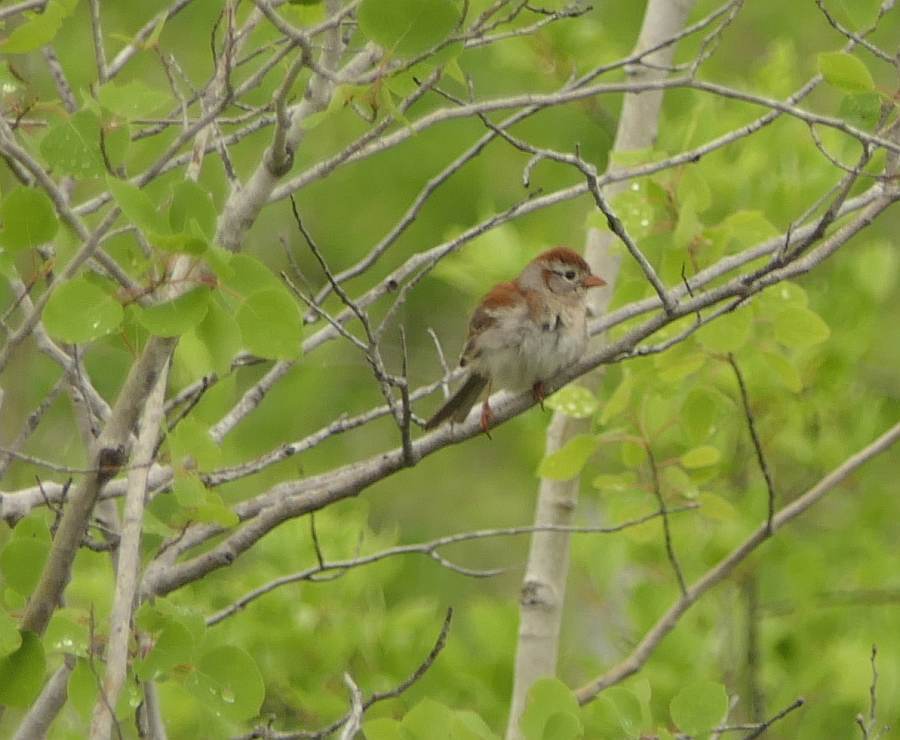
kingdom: Animalia
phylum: Chordata
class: Aves
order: Passeriformes
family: Passerellidae
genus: Spizella
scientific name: Spizella pusilla
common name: Field sparrow
